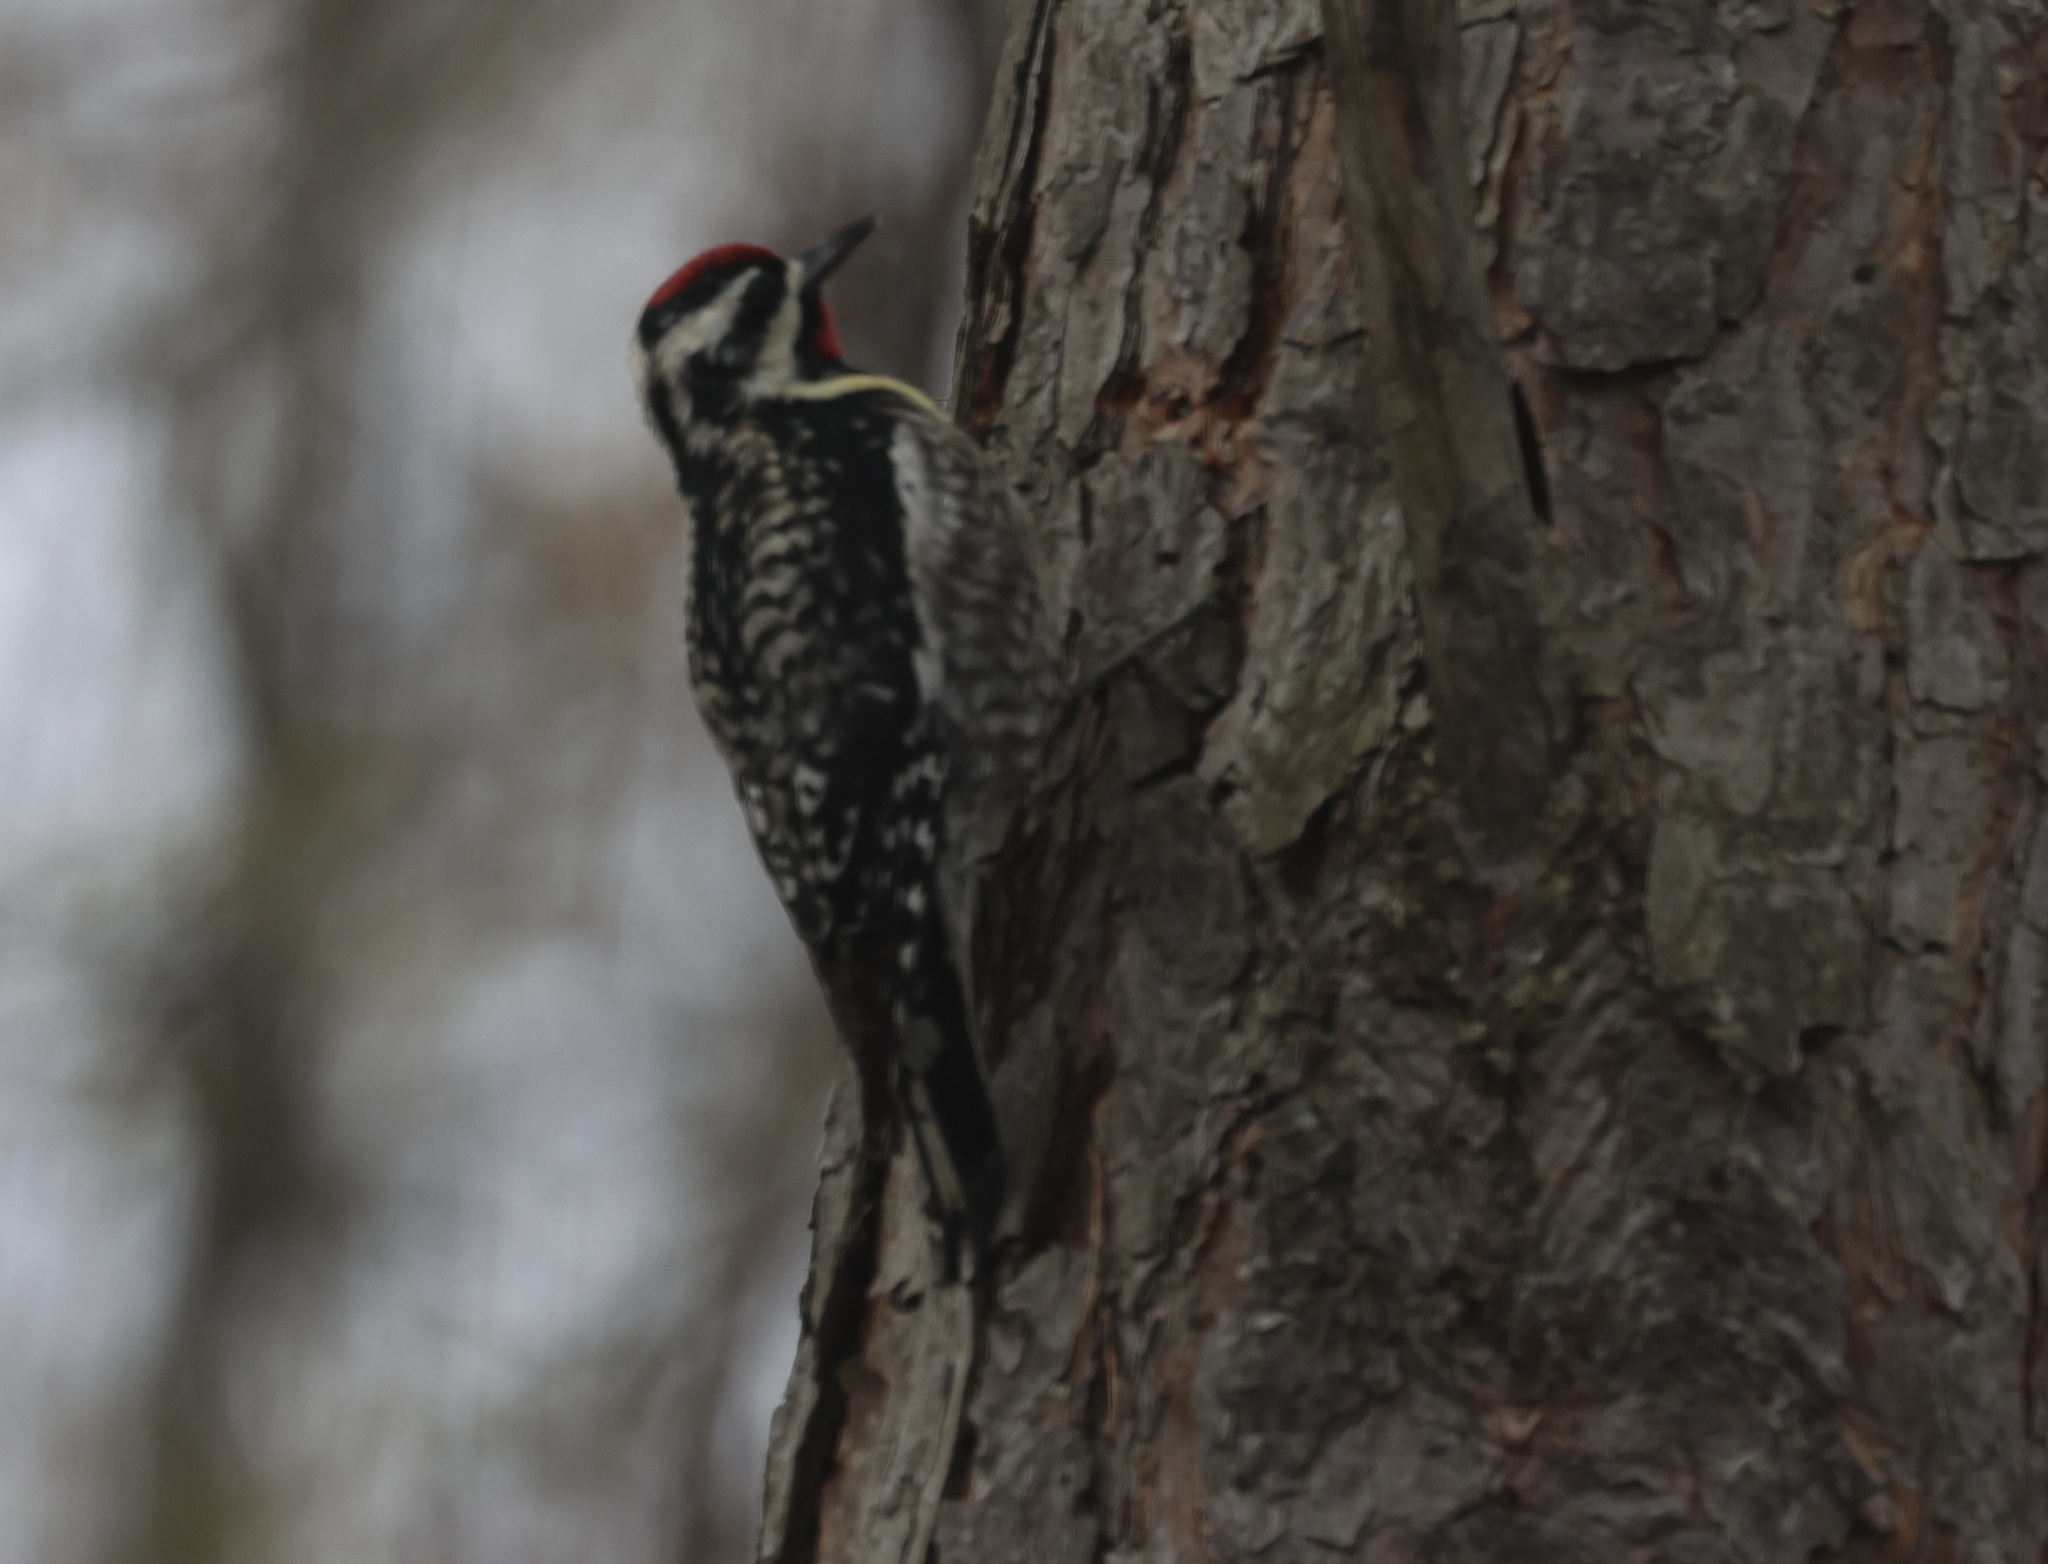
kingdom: Animalia
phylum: Chordata
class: Aves
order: Piciformes
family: Picidae
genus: Sphyrapicus
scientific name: Sphyrapicus varius
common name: Yellow-bellied sapsucker
